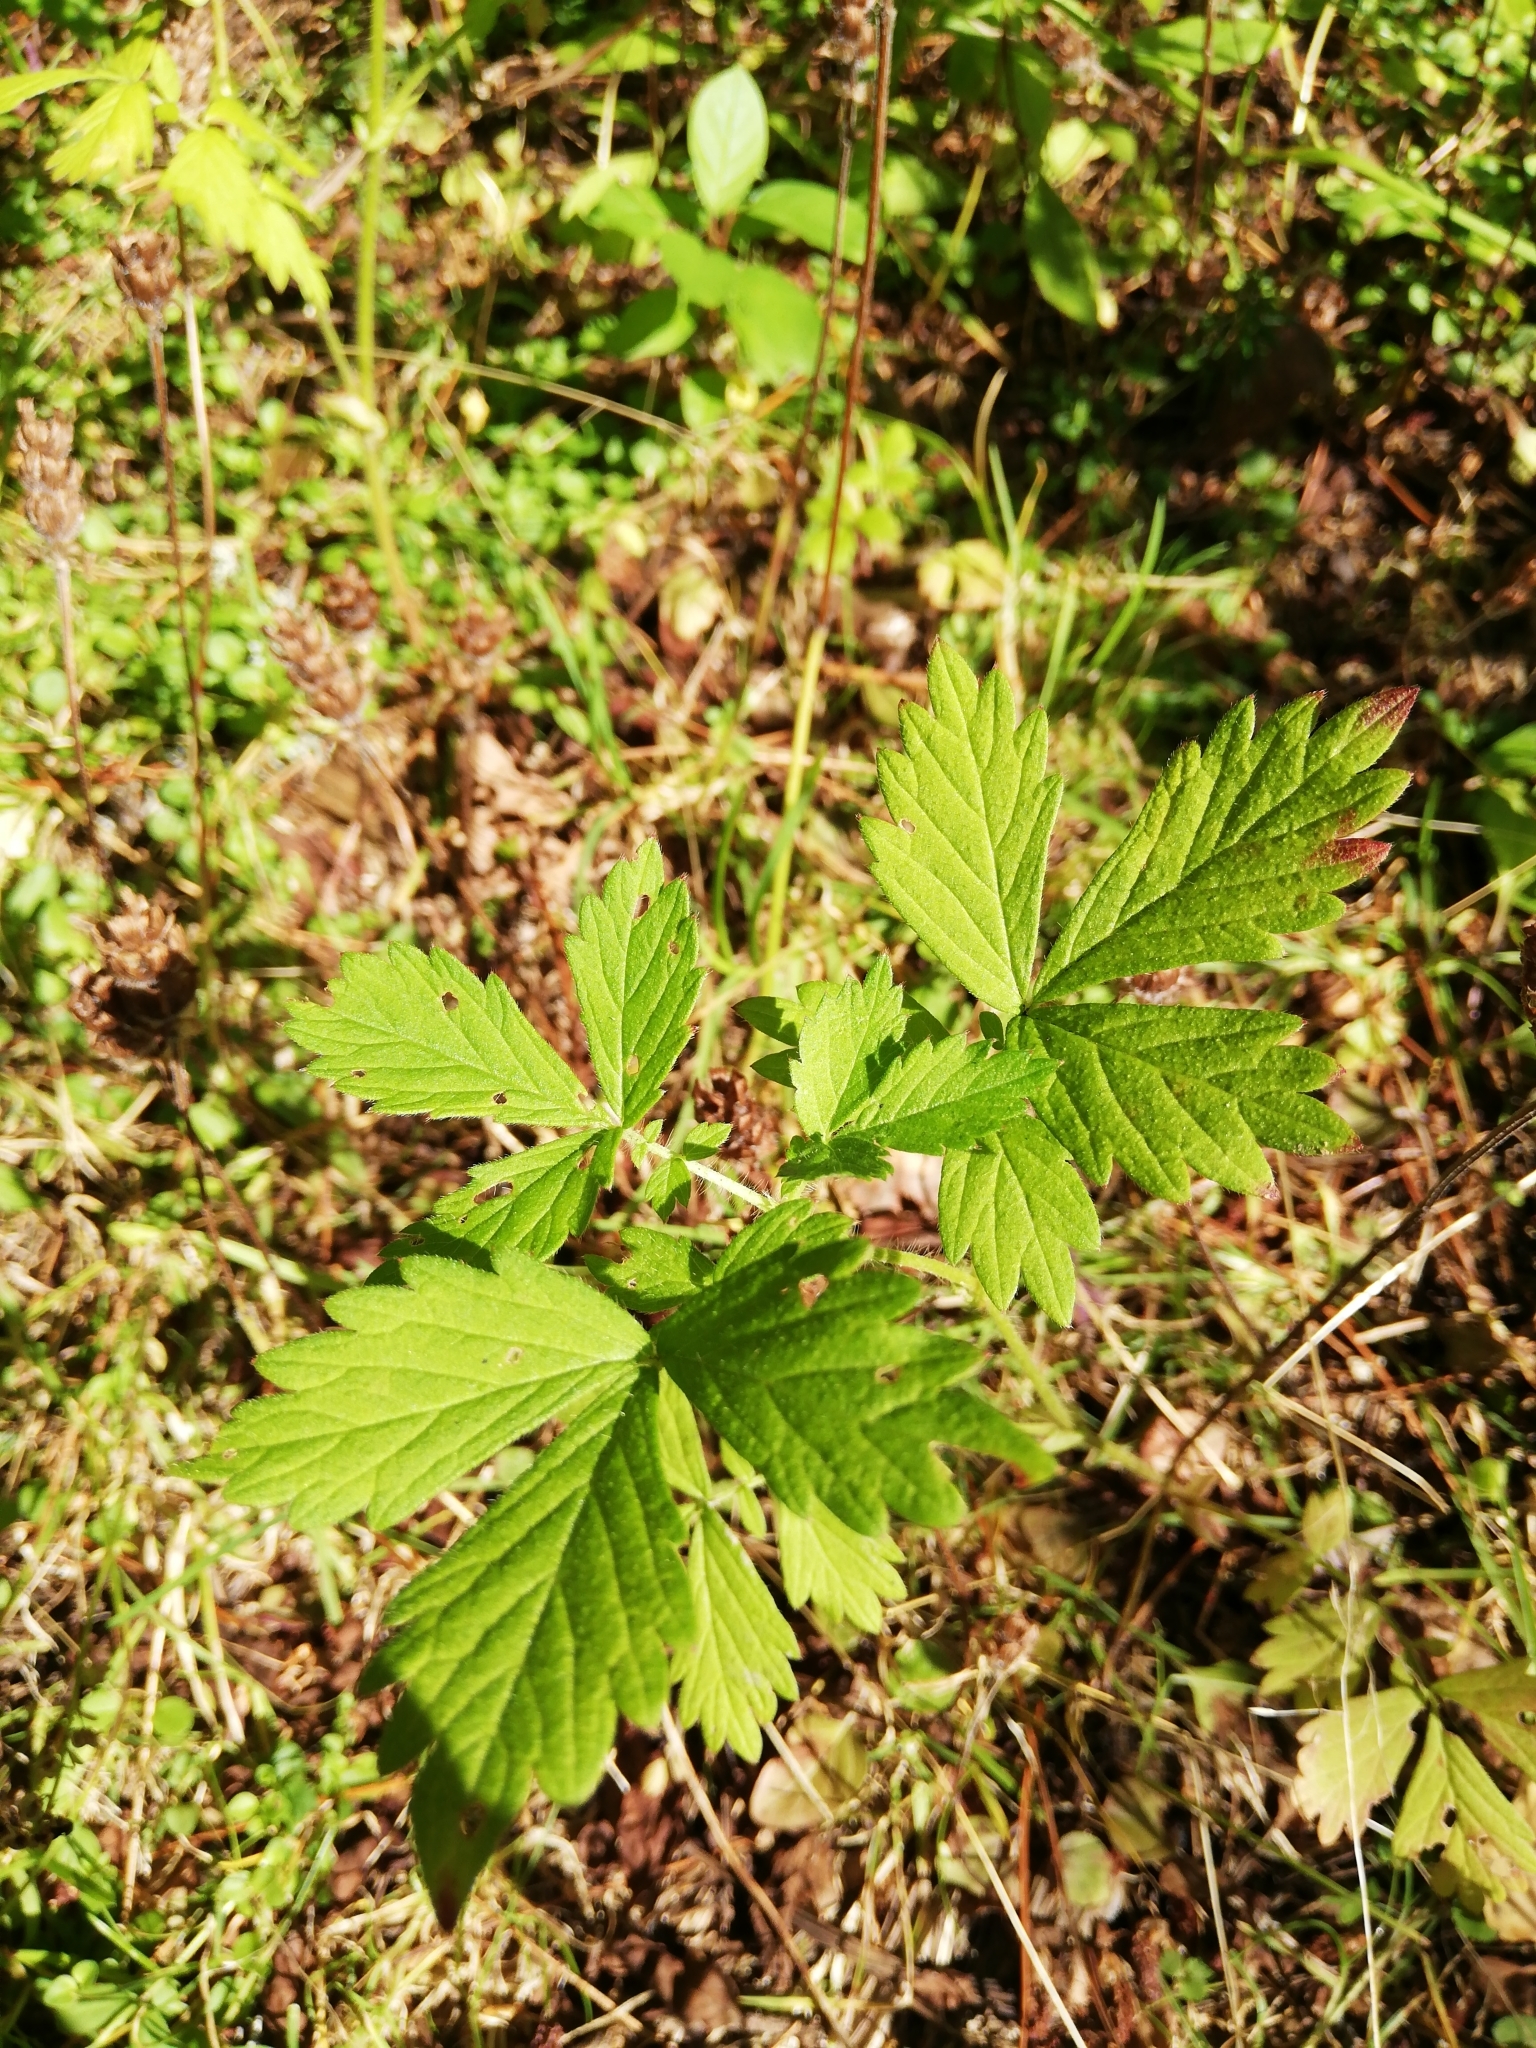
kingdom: Plantae
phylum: Tracheophyta
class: Magnoliopsida
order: Rosales
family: Rosaceae
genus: Agrimonia
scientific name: Agrimonia pilosa
